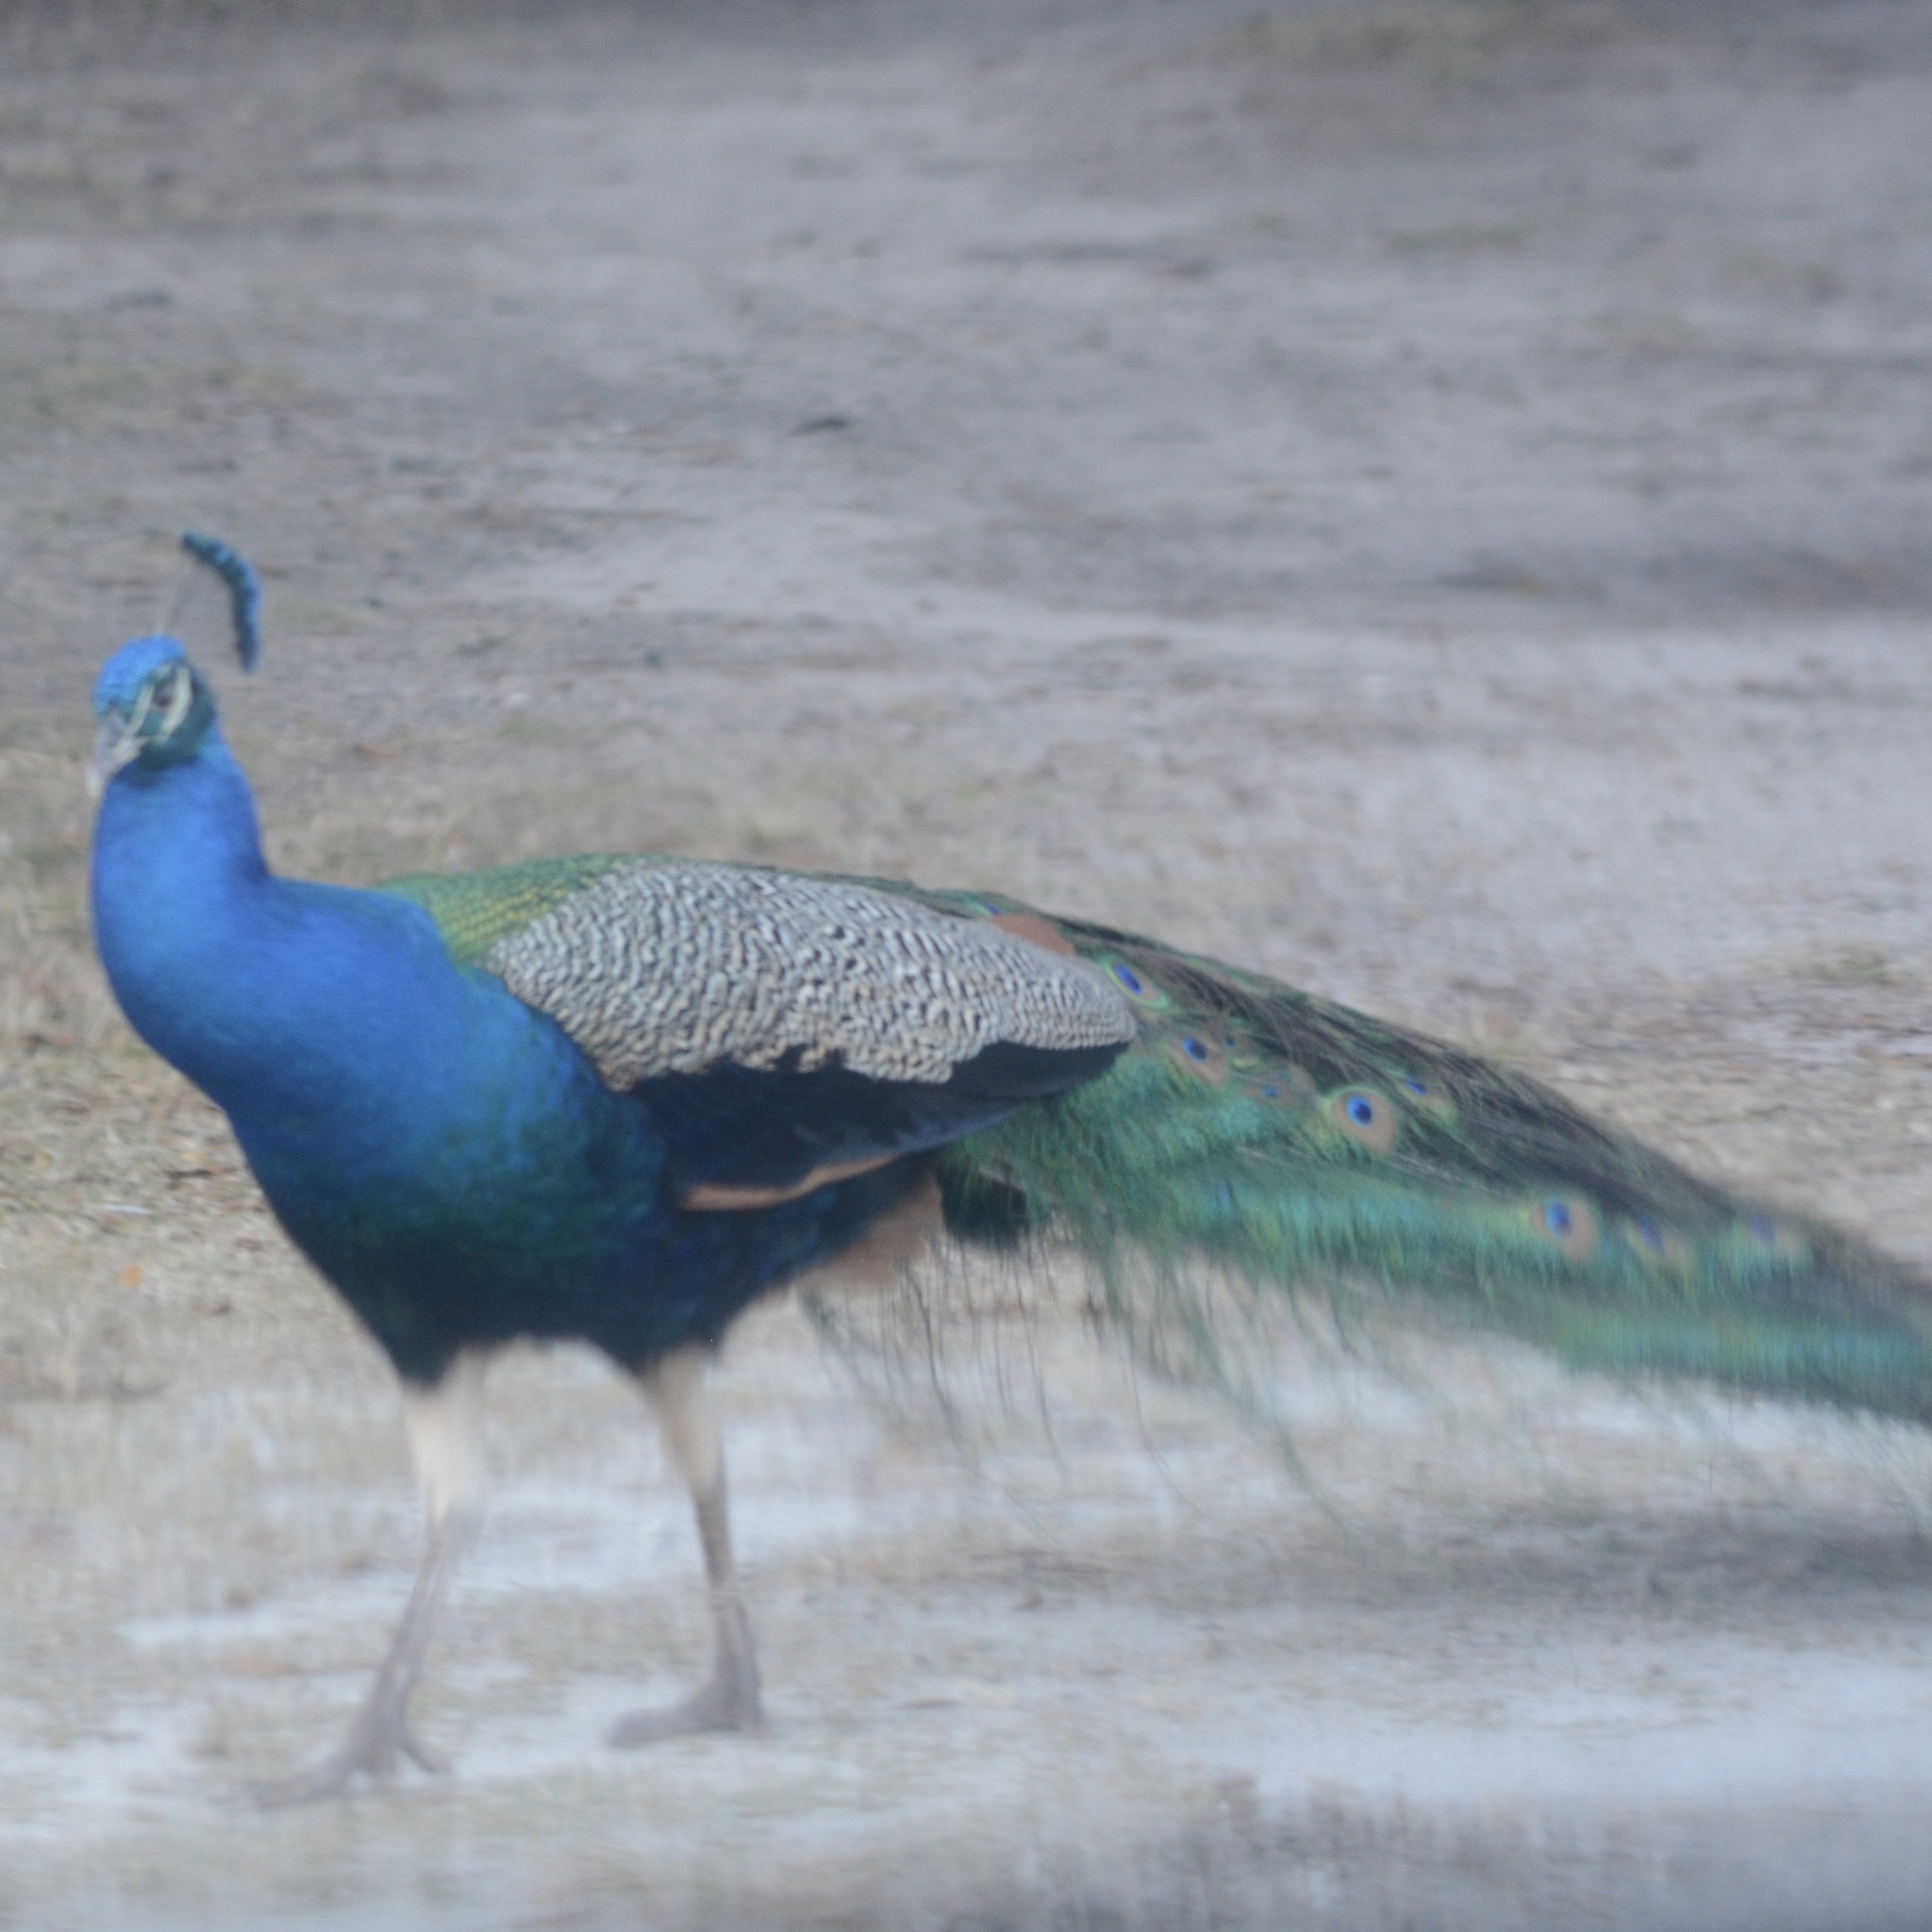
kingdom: Animalia
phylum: Chordata
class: Aves
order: Galliformes
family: Phasianidae
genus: Pavo
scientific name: Pavo cristatus
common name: Indian peafowl
